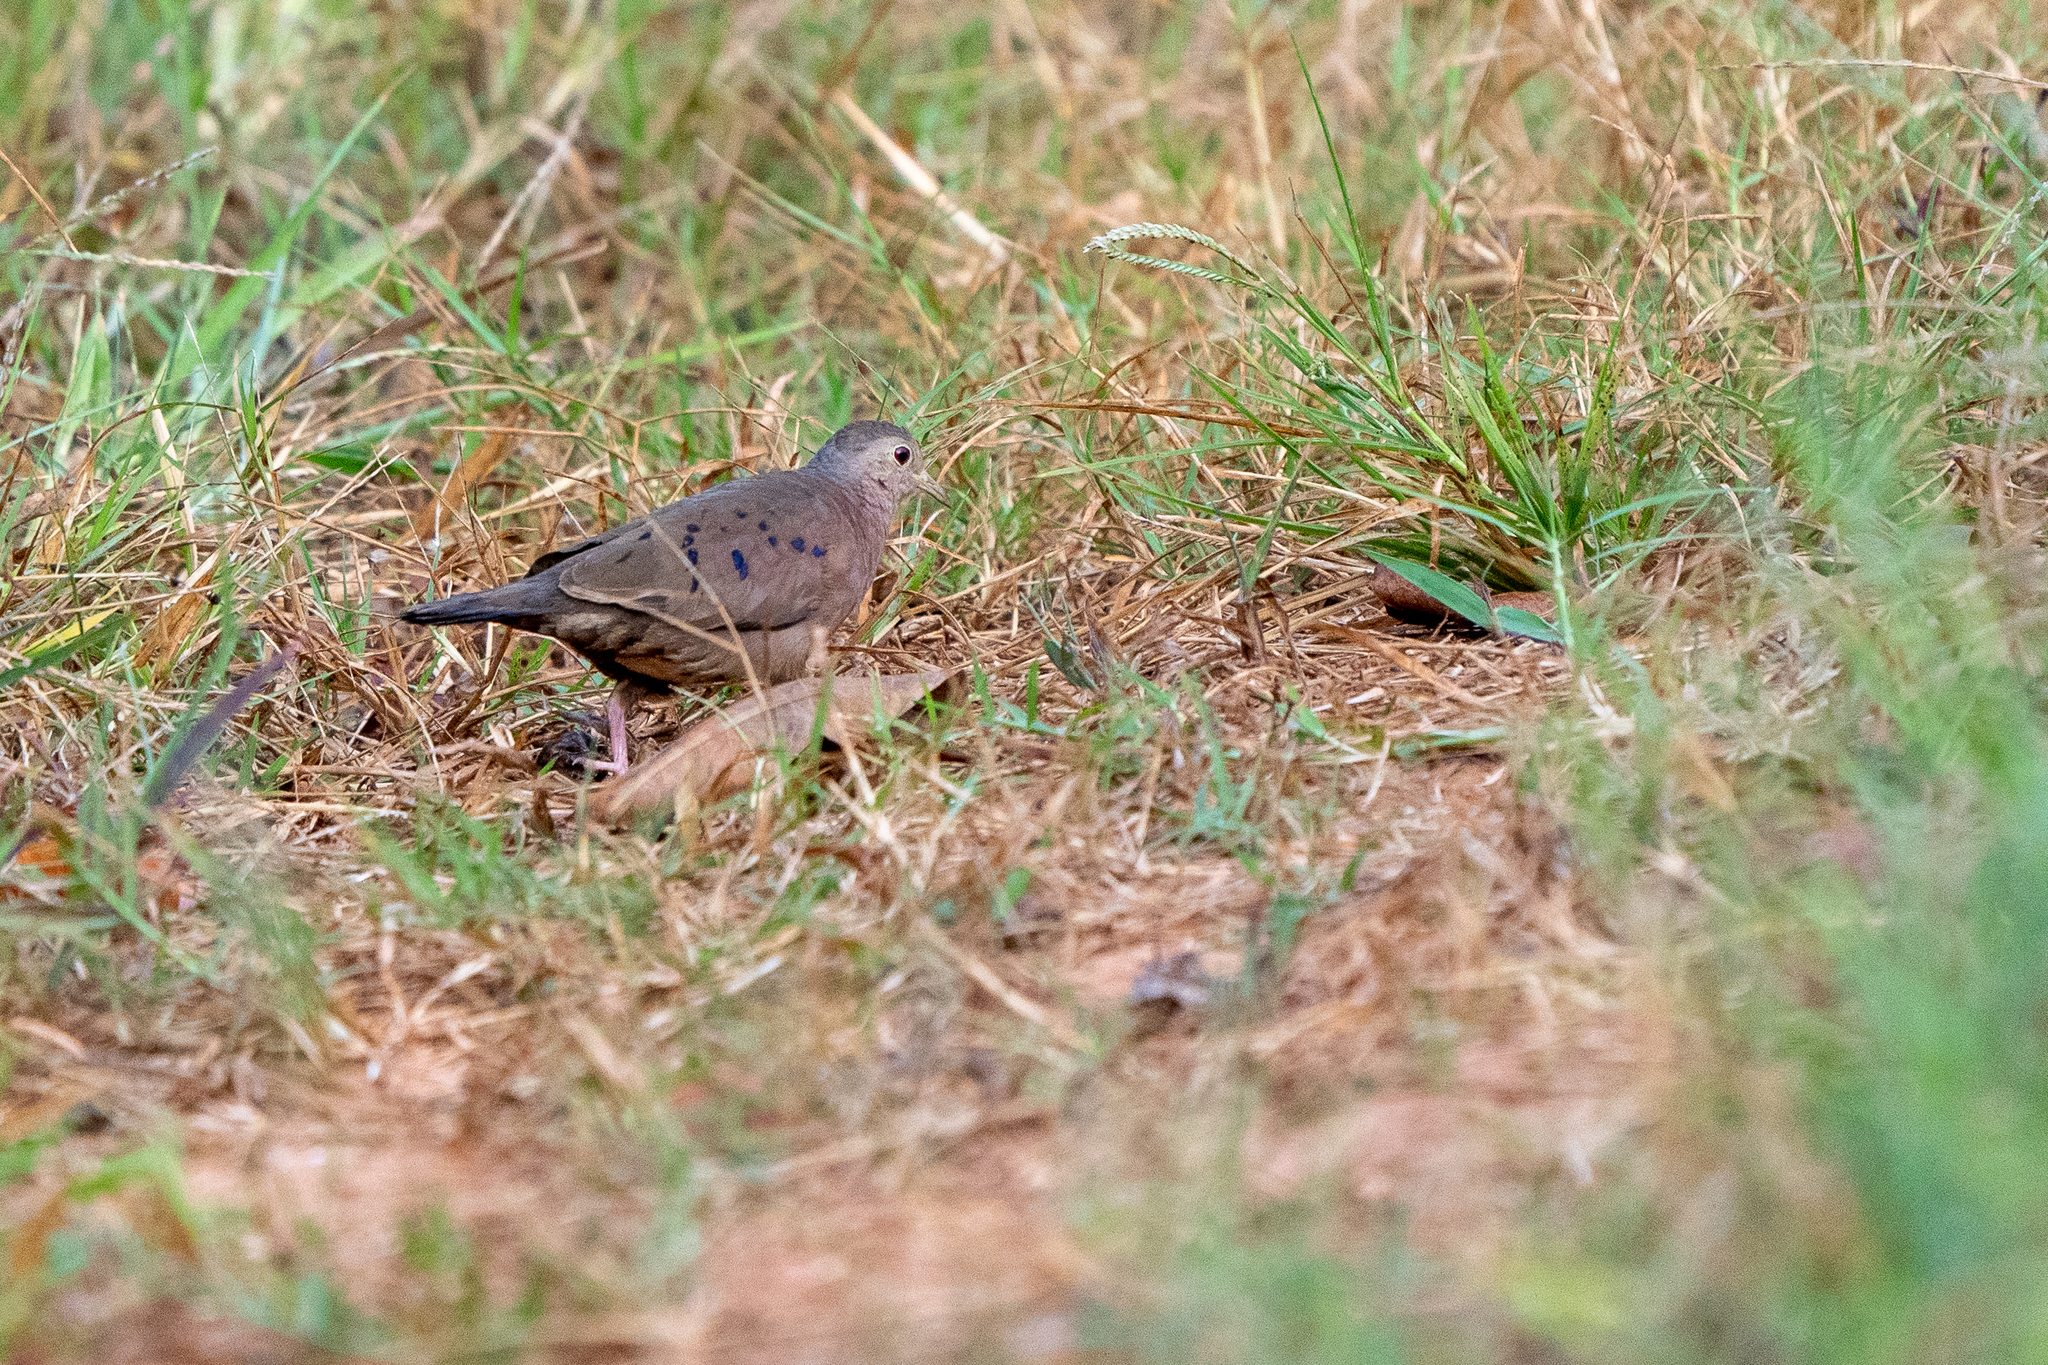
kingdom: Animalia
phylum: Chordata
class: Aves
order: Columbiformes
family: Columbidae
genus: Columbina
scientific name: Columbina minuta
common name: Plain-breasted ground dove
